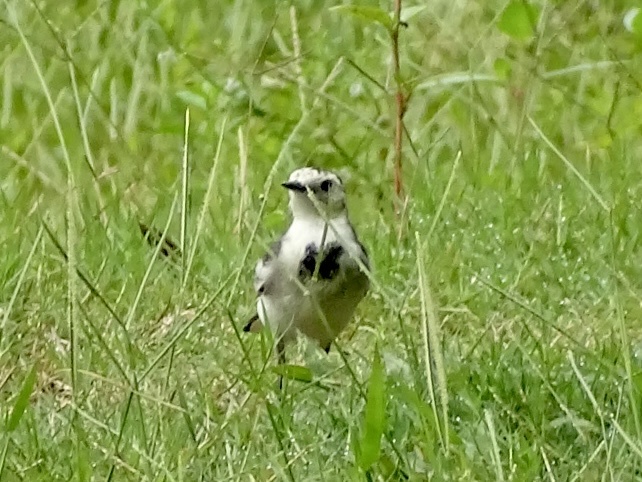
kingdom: Animalia
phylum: Chordata
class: Aves
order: Passeriformes
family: Motacillidae
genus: Motacilla
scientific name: Motacilla alba
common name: White wagtail
